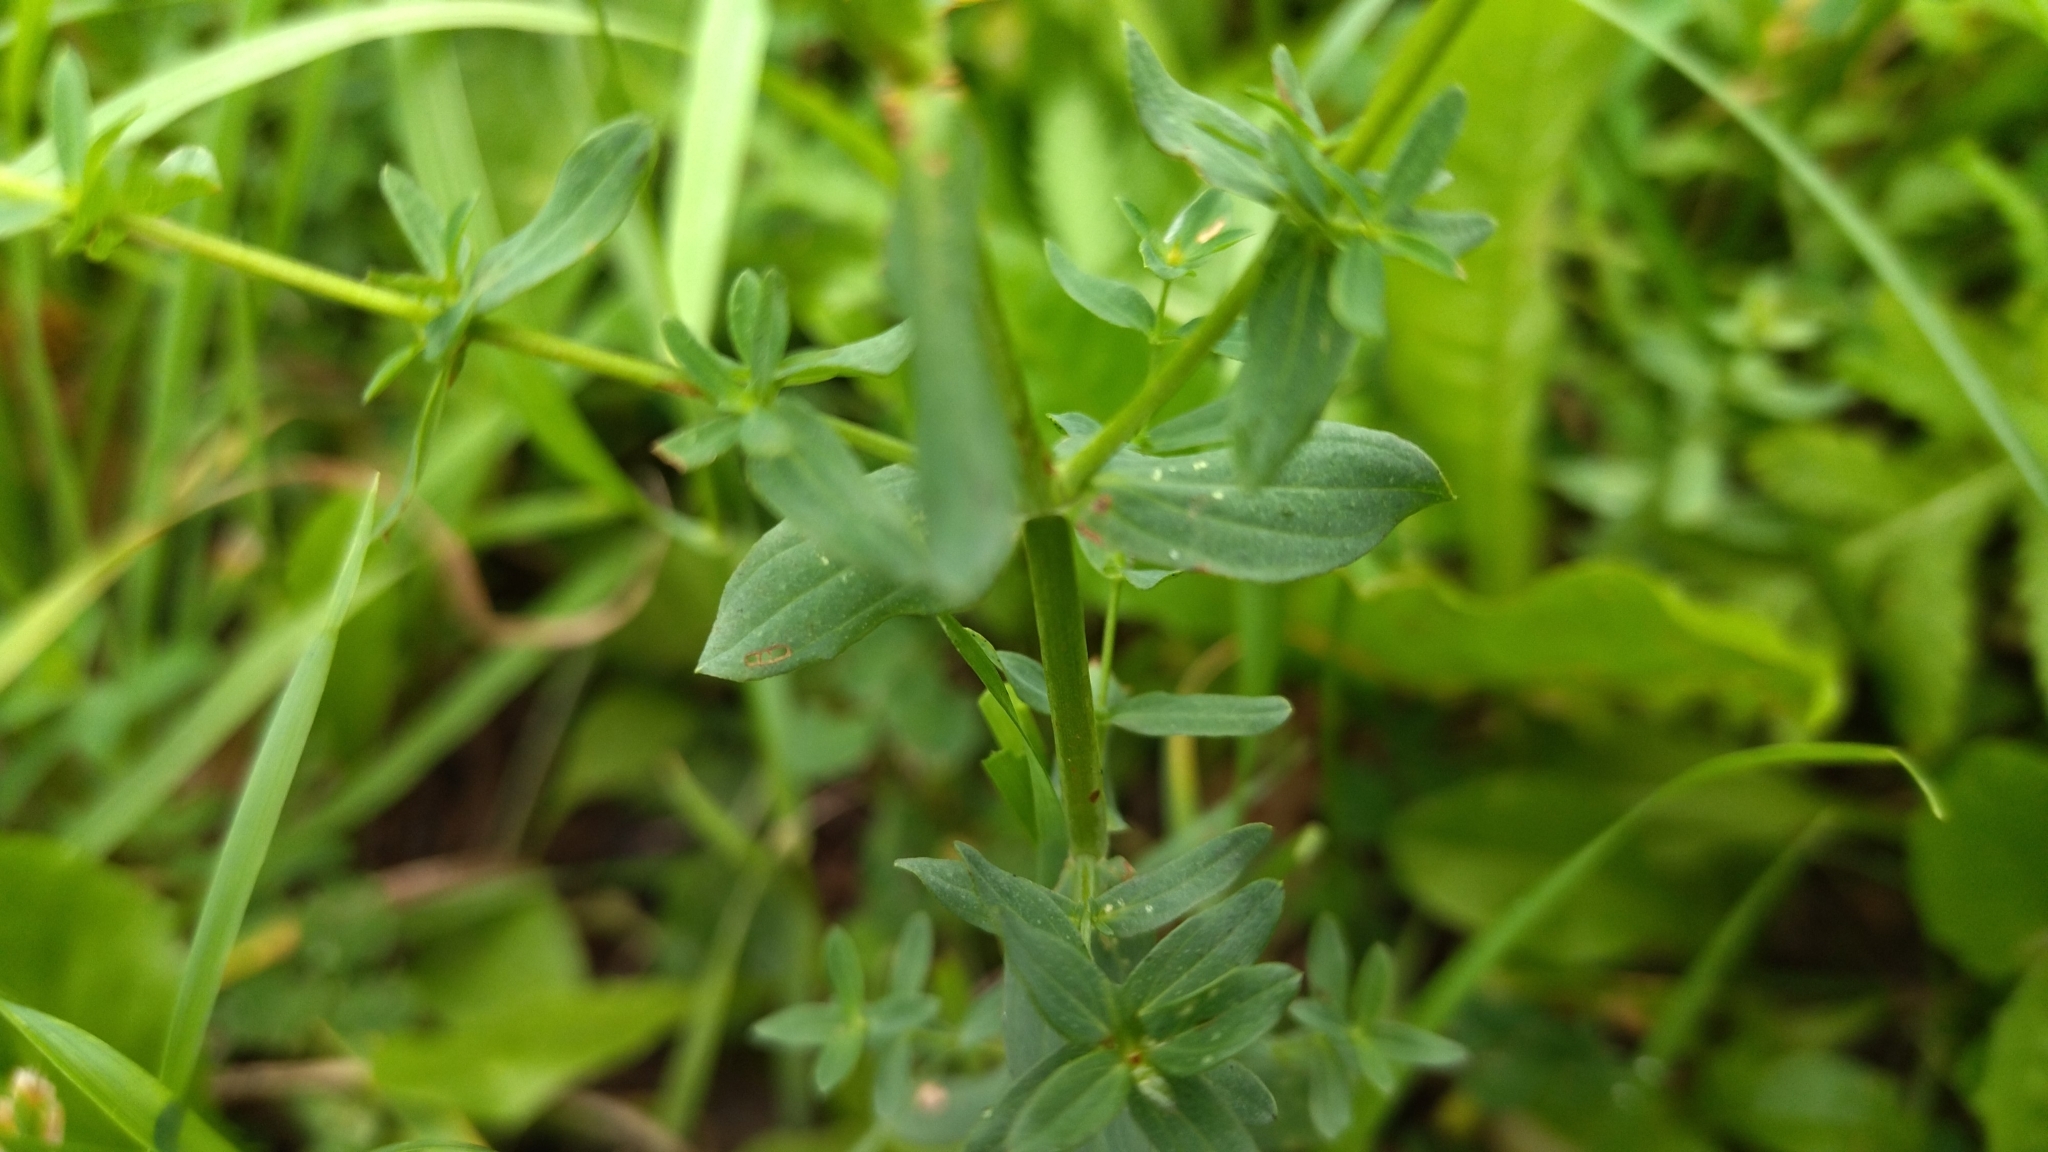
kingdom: Plantae
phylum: Tracheophyta
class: Magnoliopsida
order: Malpighiales
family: Hypericaceae
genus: Hypericum
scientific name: Hypericum perforatum
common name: Common st. johnswort
